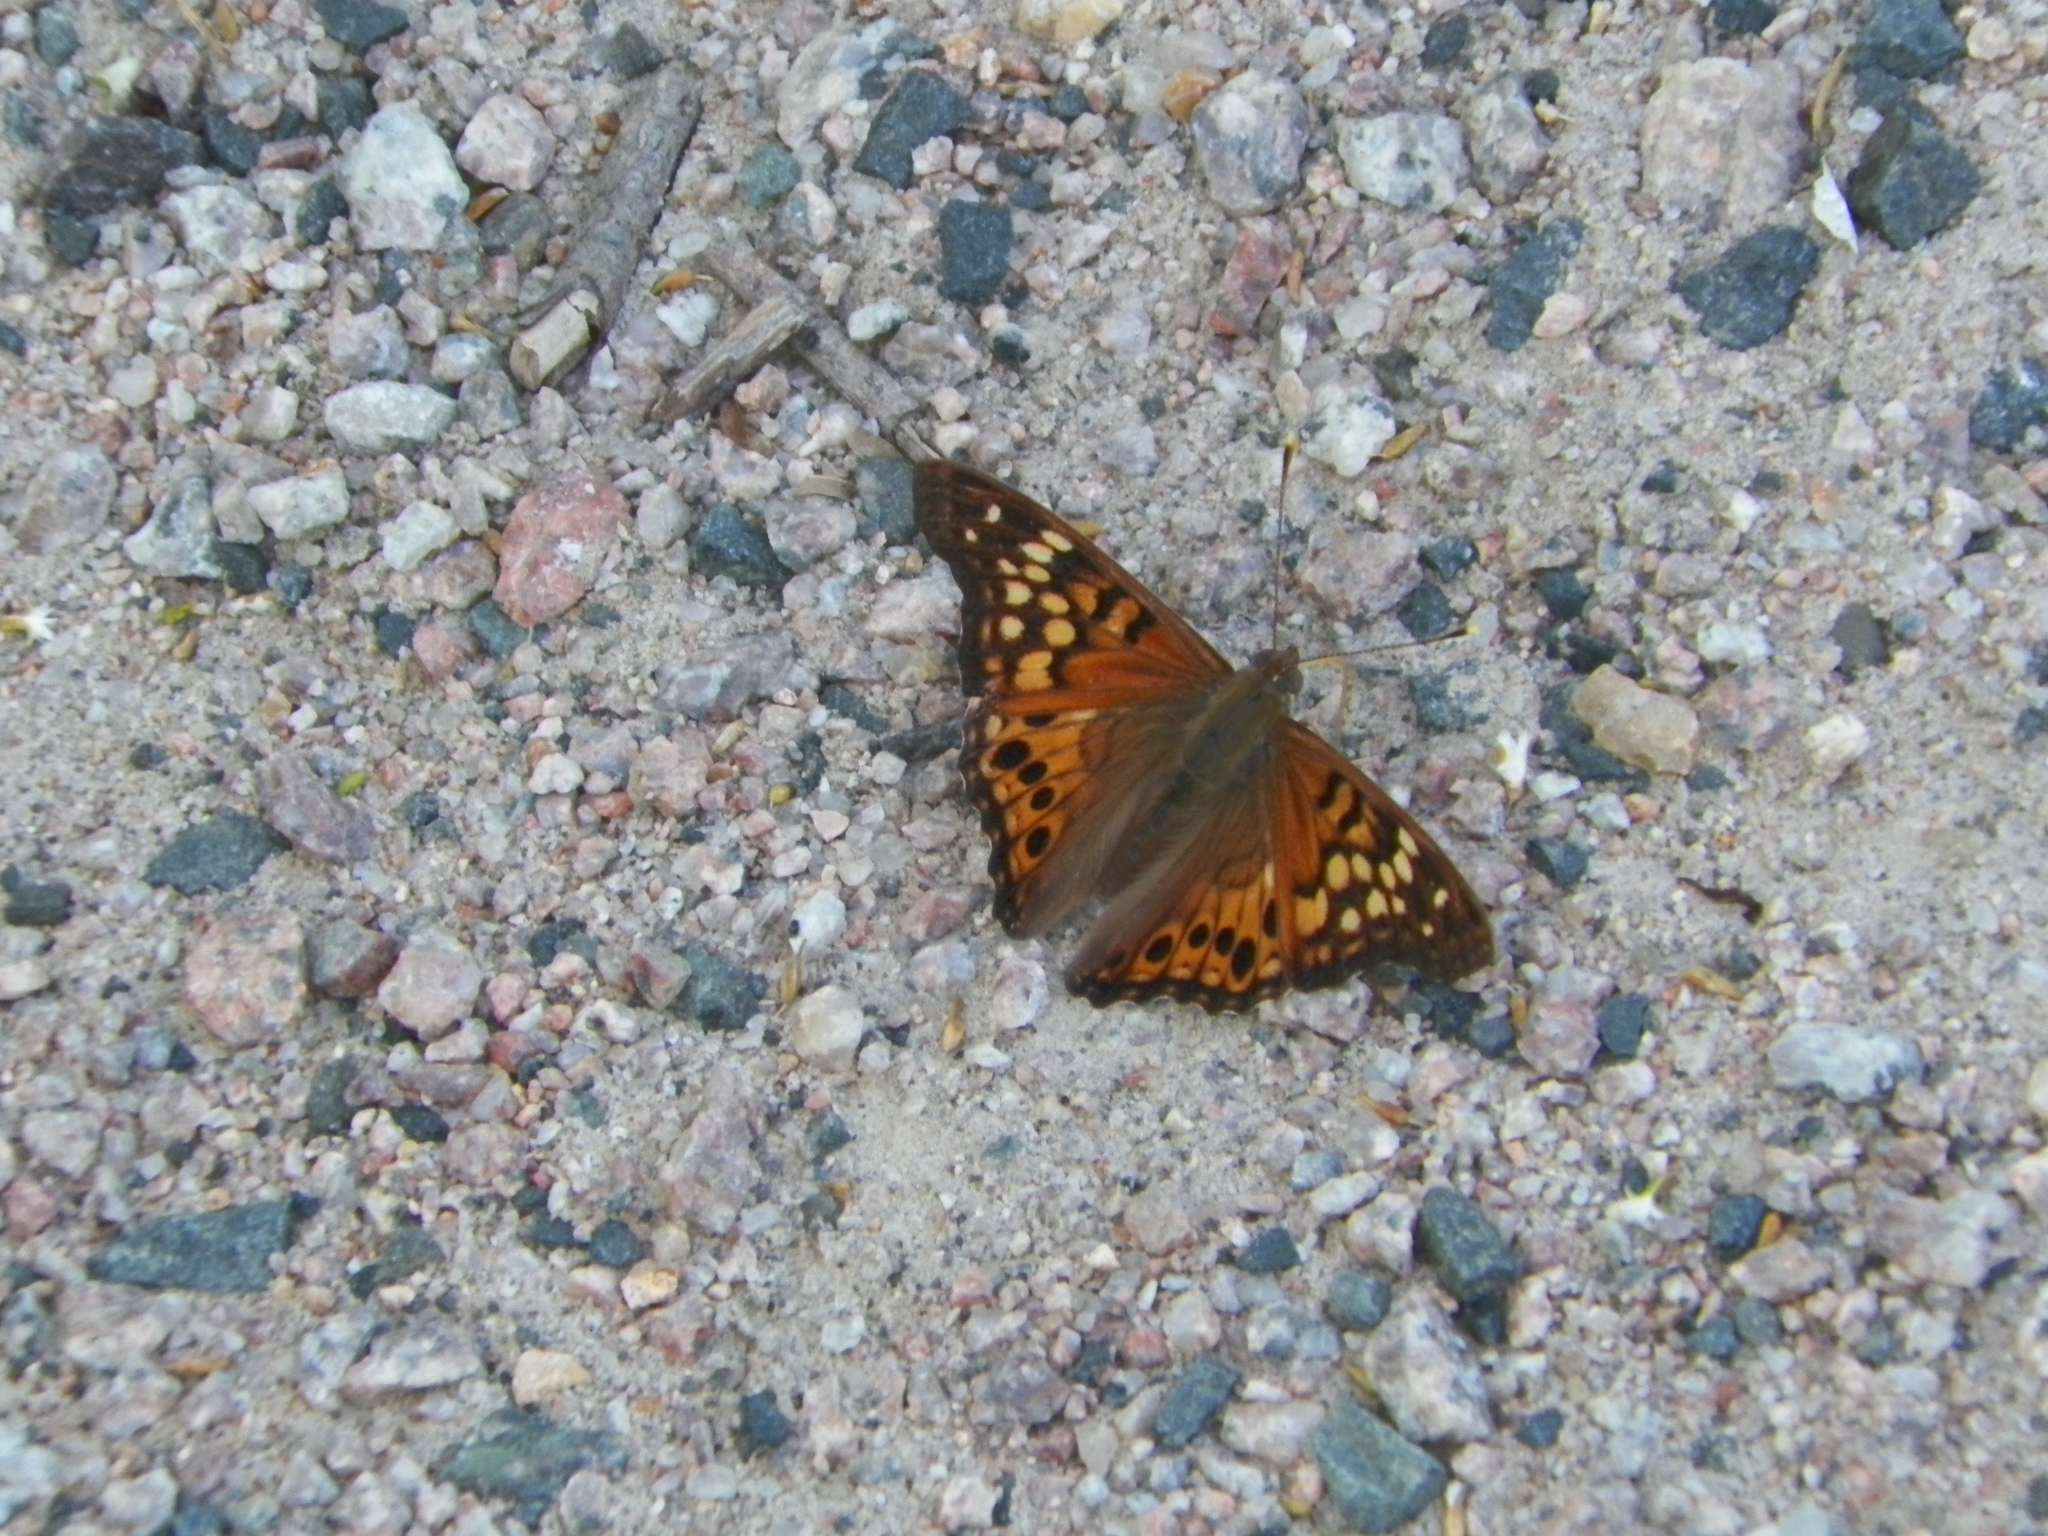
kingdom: Animalia
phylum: Arthropoda
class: Insecta
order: Lepidoptera
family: Nymphalidae
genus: Asterocampa
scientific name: Asterocampa clyton
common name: Tawny emperor
